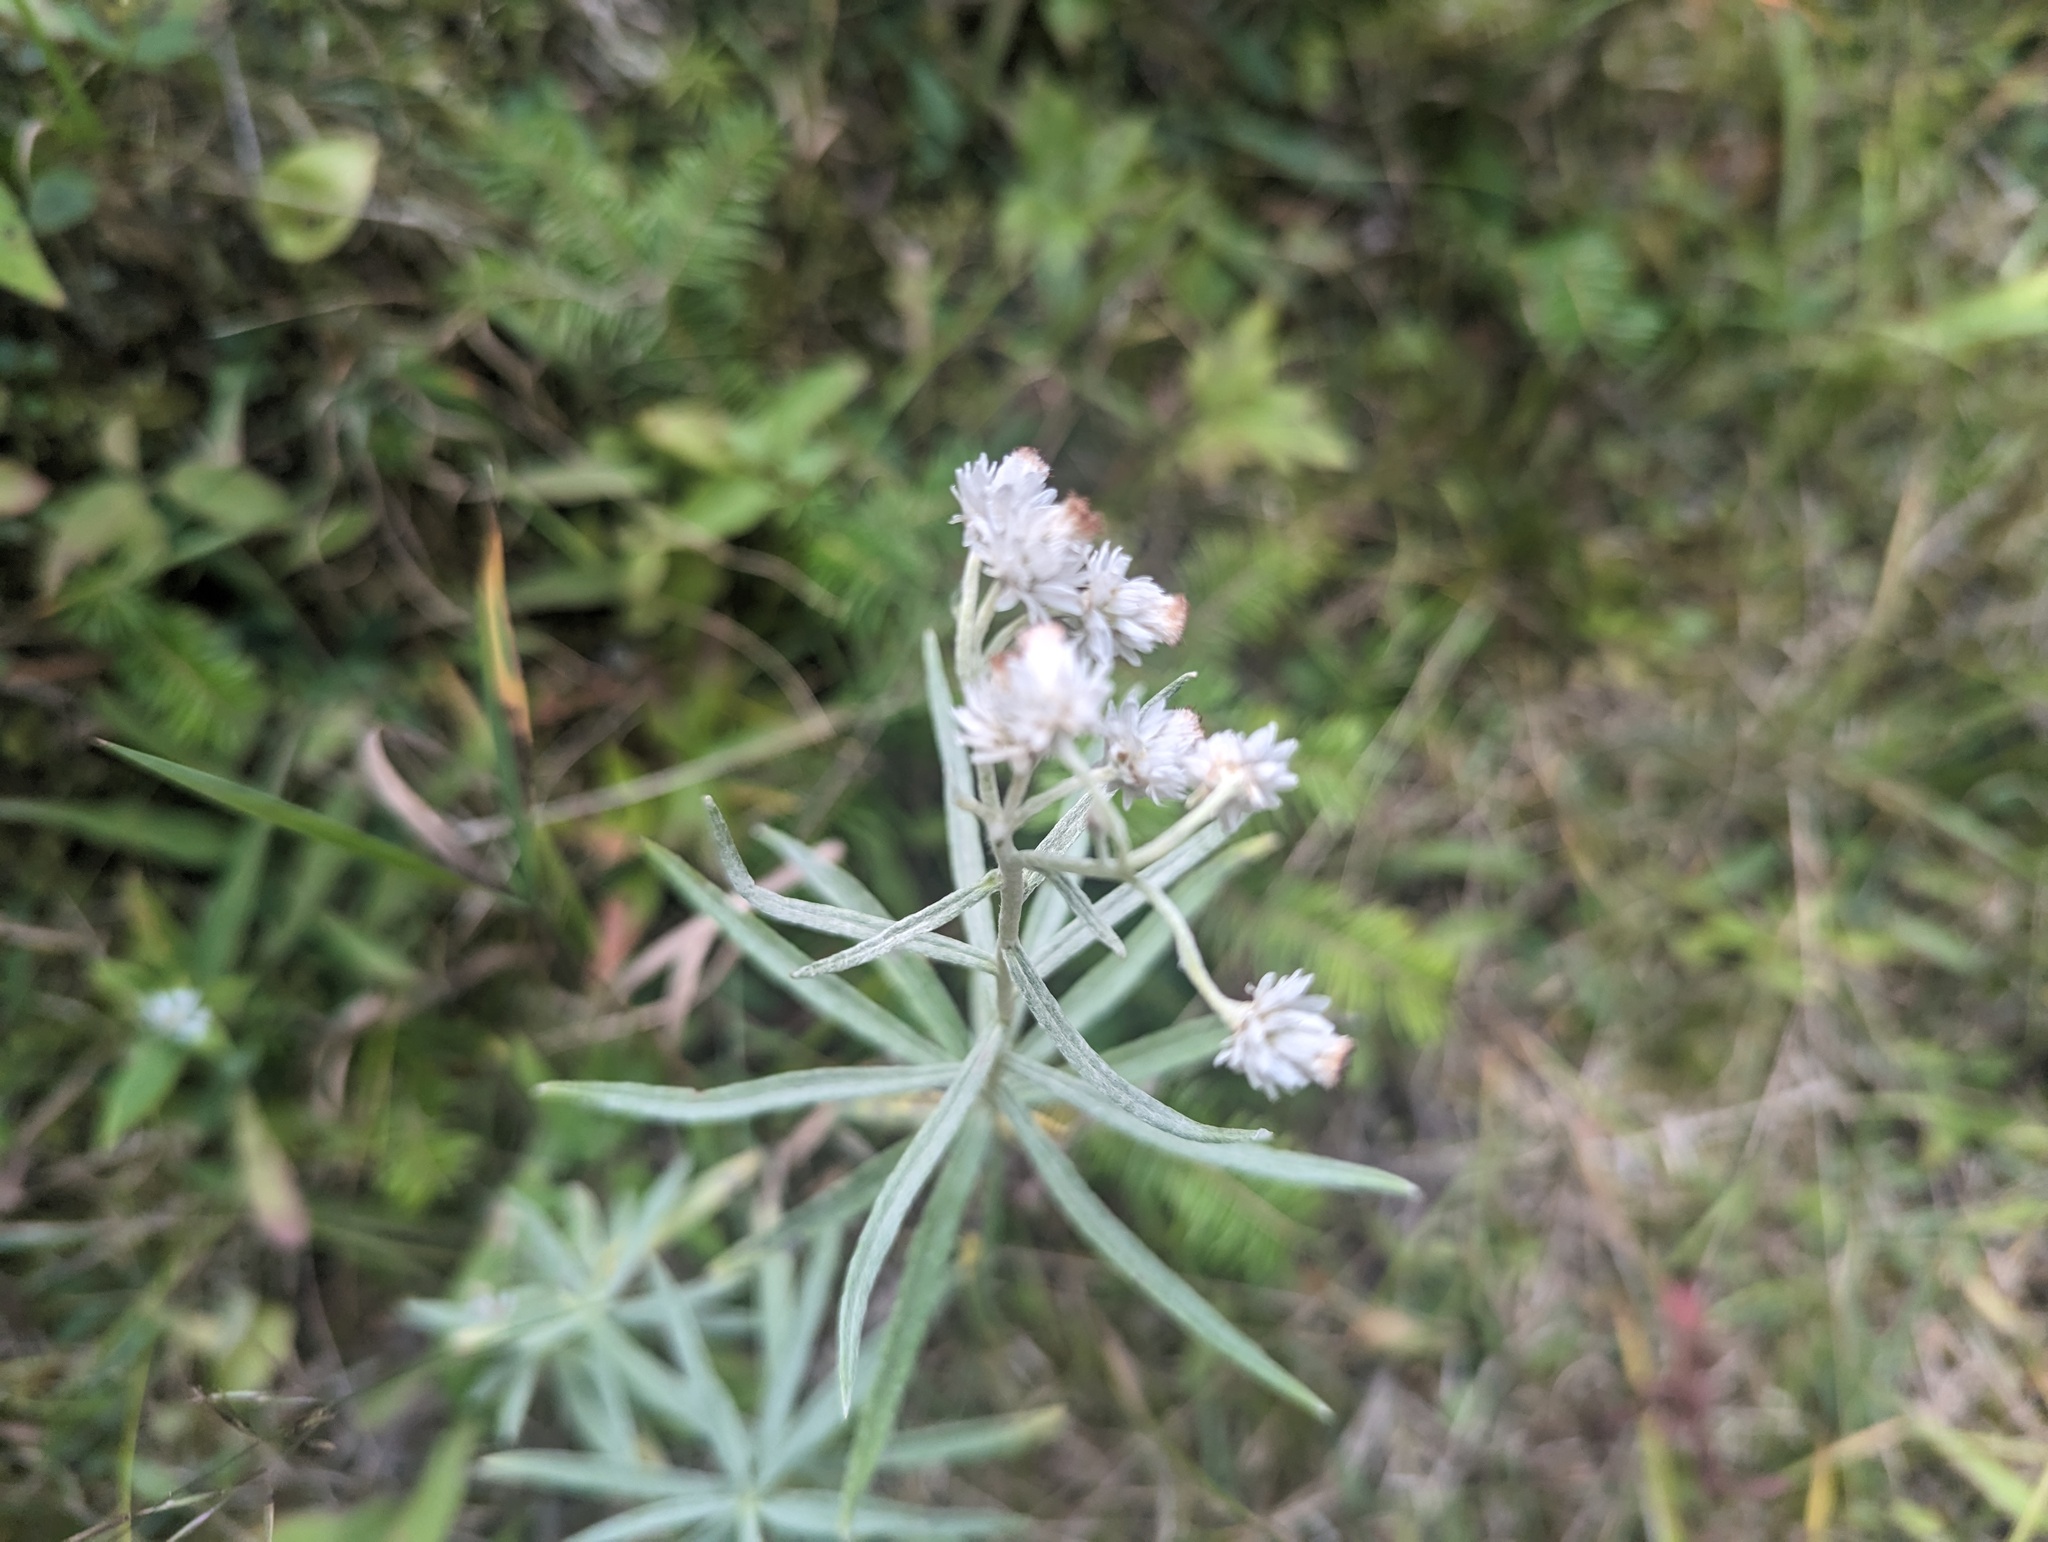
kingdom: Plantae
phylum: Tracheophyta
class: Magnoliopsida
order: Asterales
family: Asteraceae
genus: Anaphalis
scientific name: Anaphalis margaritacea
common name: Pearly everlasting
